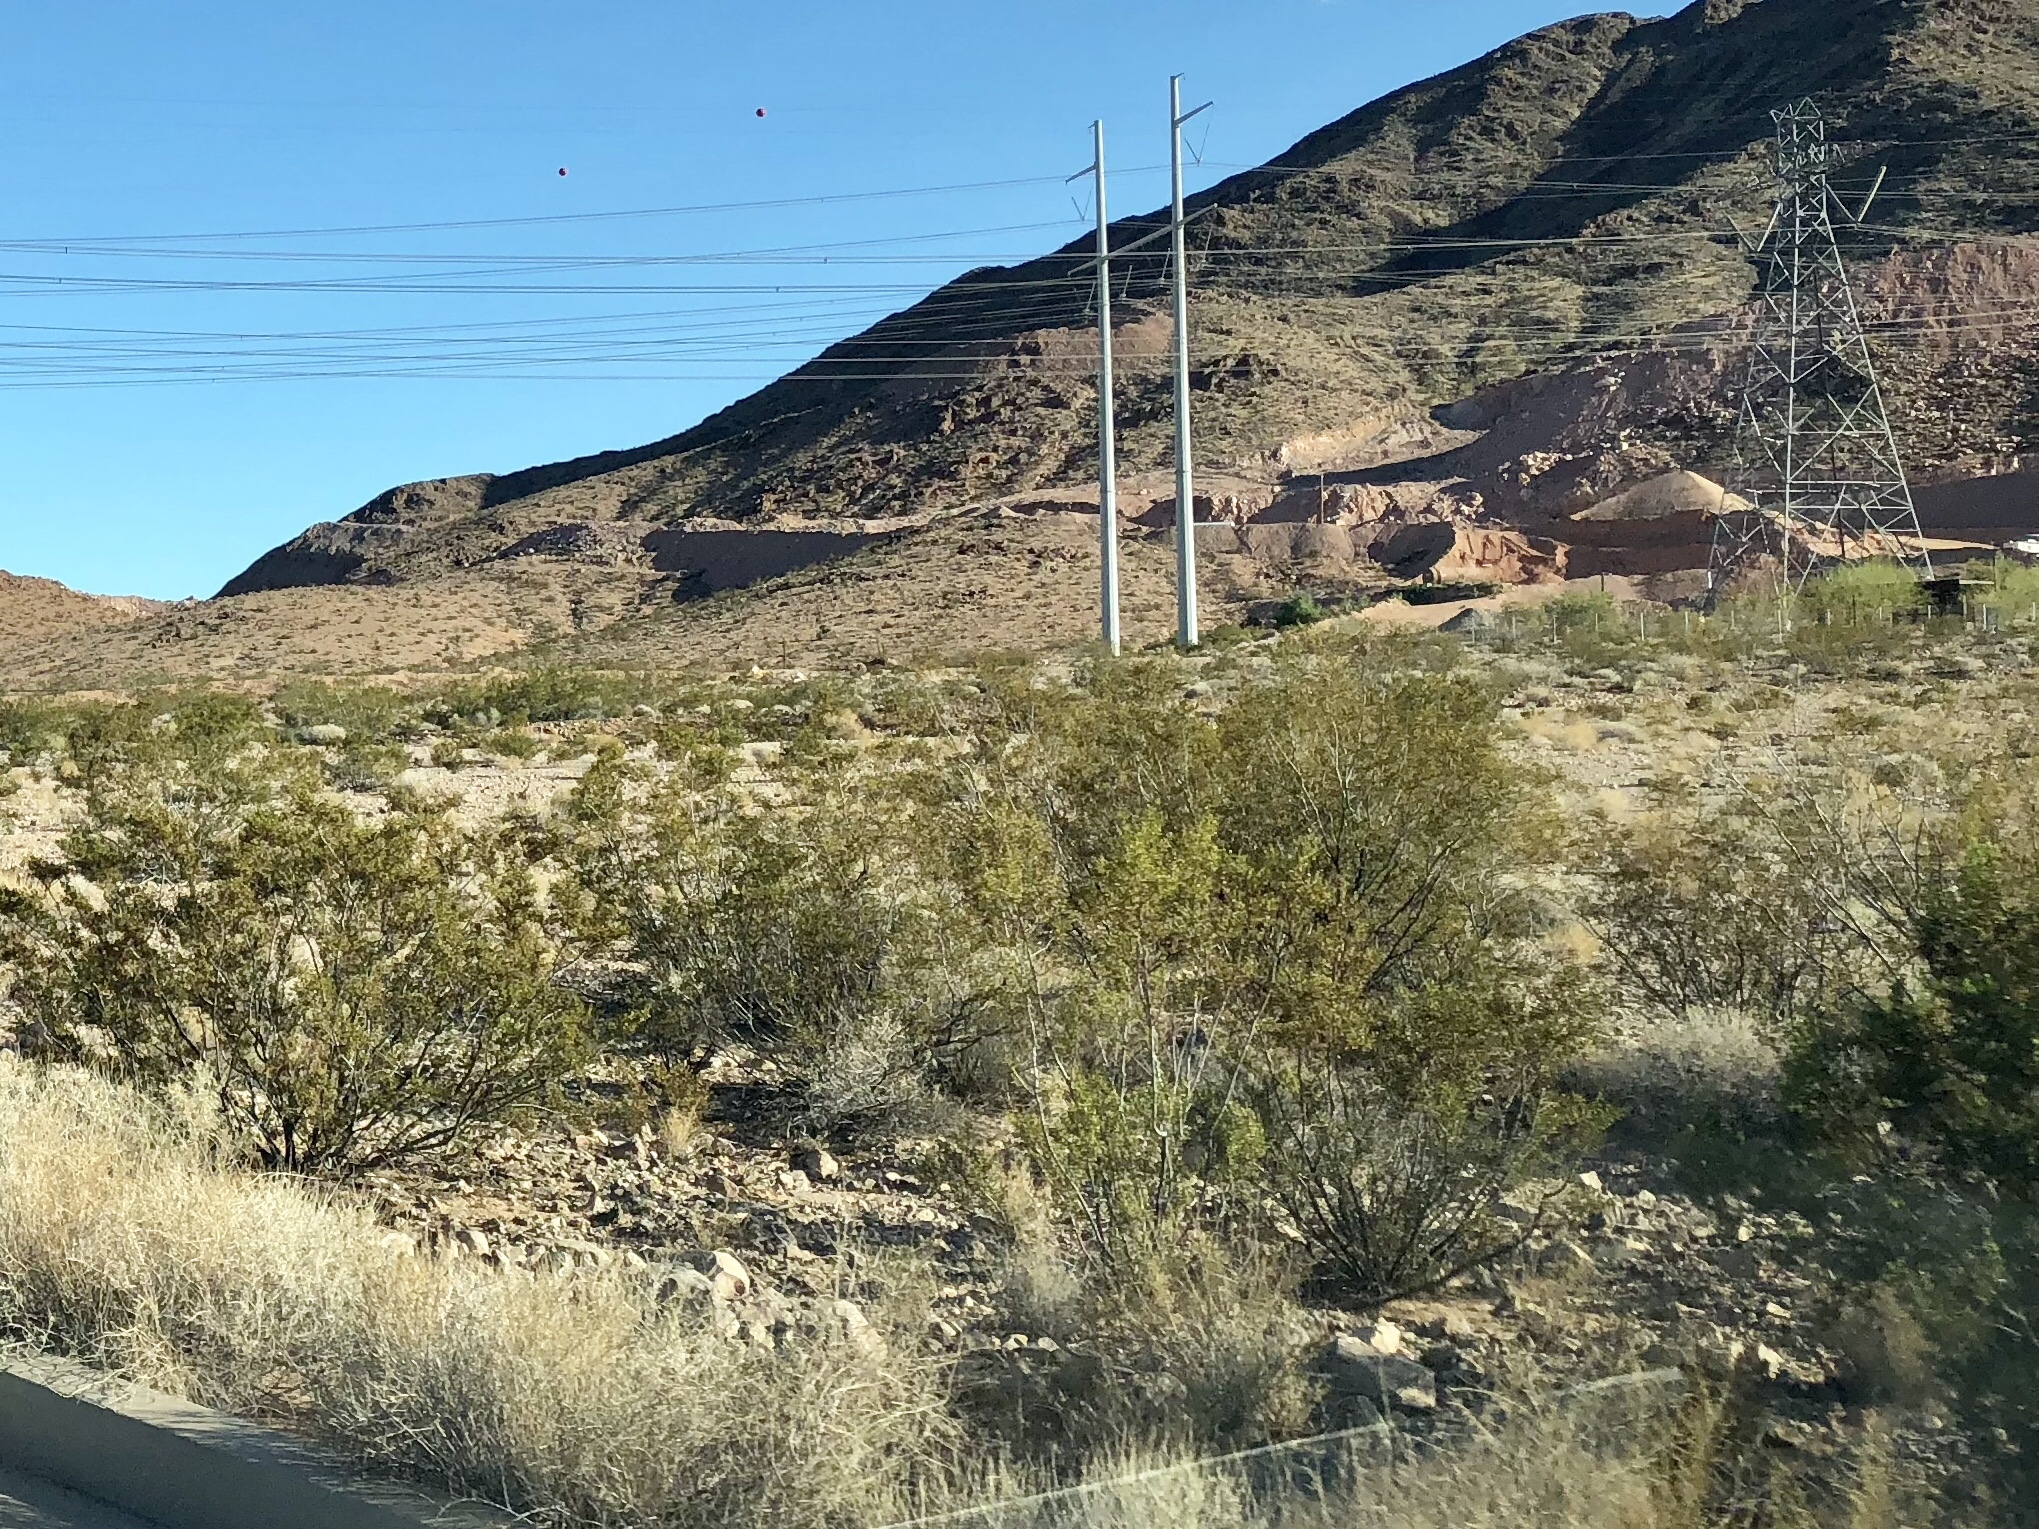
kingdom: Plantae
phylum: Tracheophyta
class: Magnoliopsida
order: Zygophyllales
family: Zygophyllaceae
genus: Larrea
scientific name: Larrea tridentata
